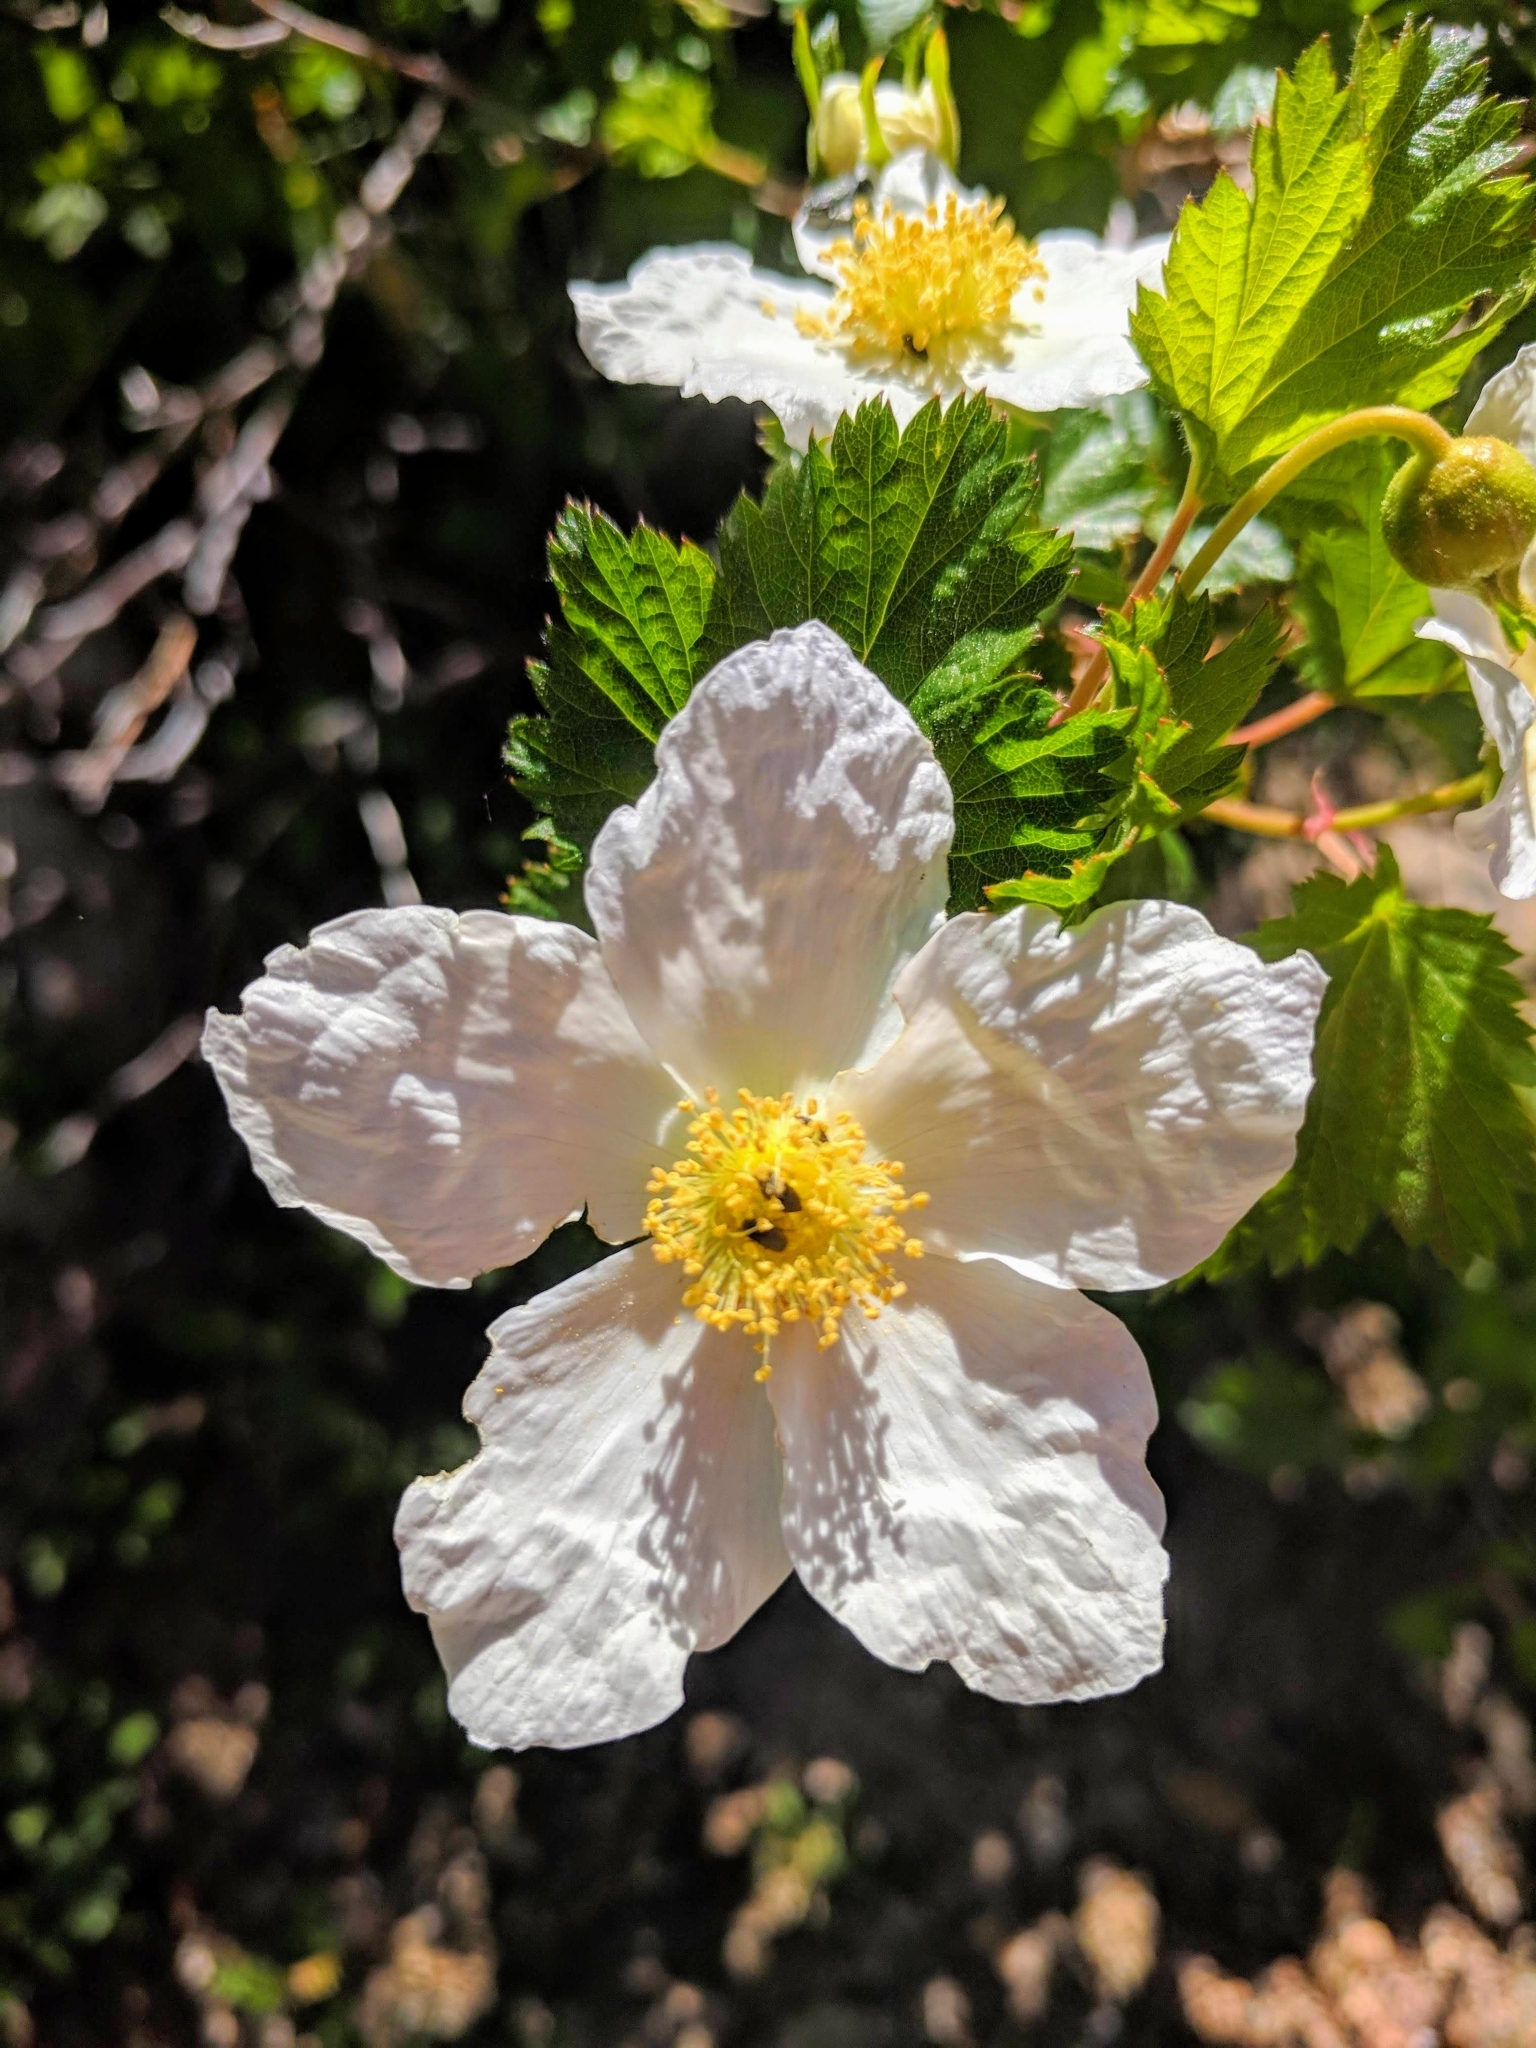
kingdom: Plantae
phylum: Tracheophyta
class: Magnoliopsida
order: Rosales
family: Rosaceae
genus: Rubus
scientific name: Rubus deliciosus
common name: Rocky mountain raspberry
